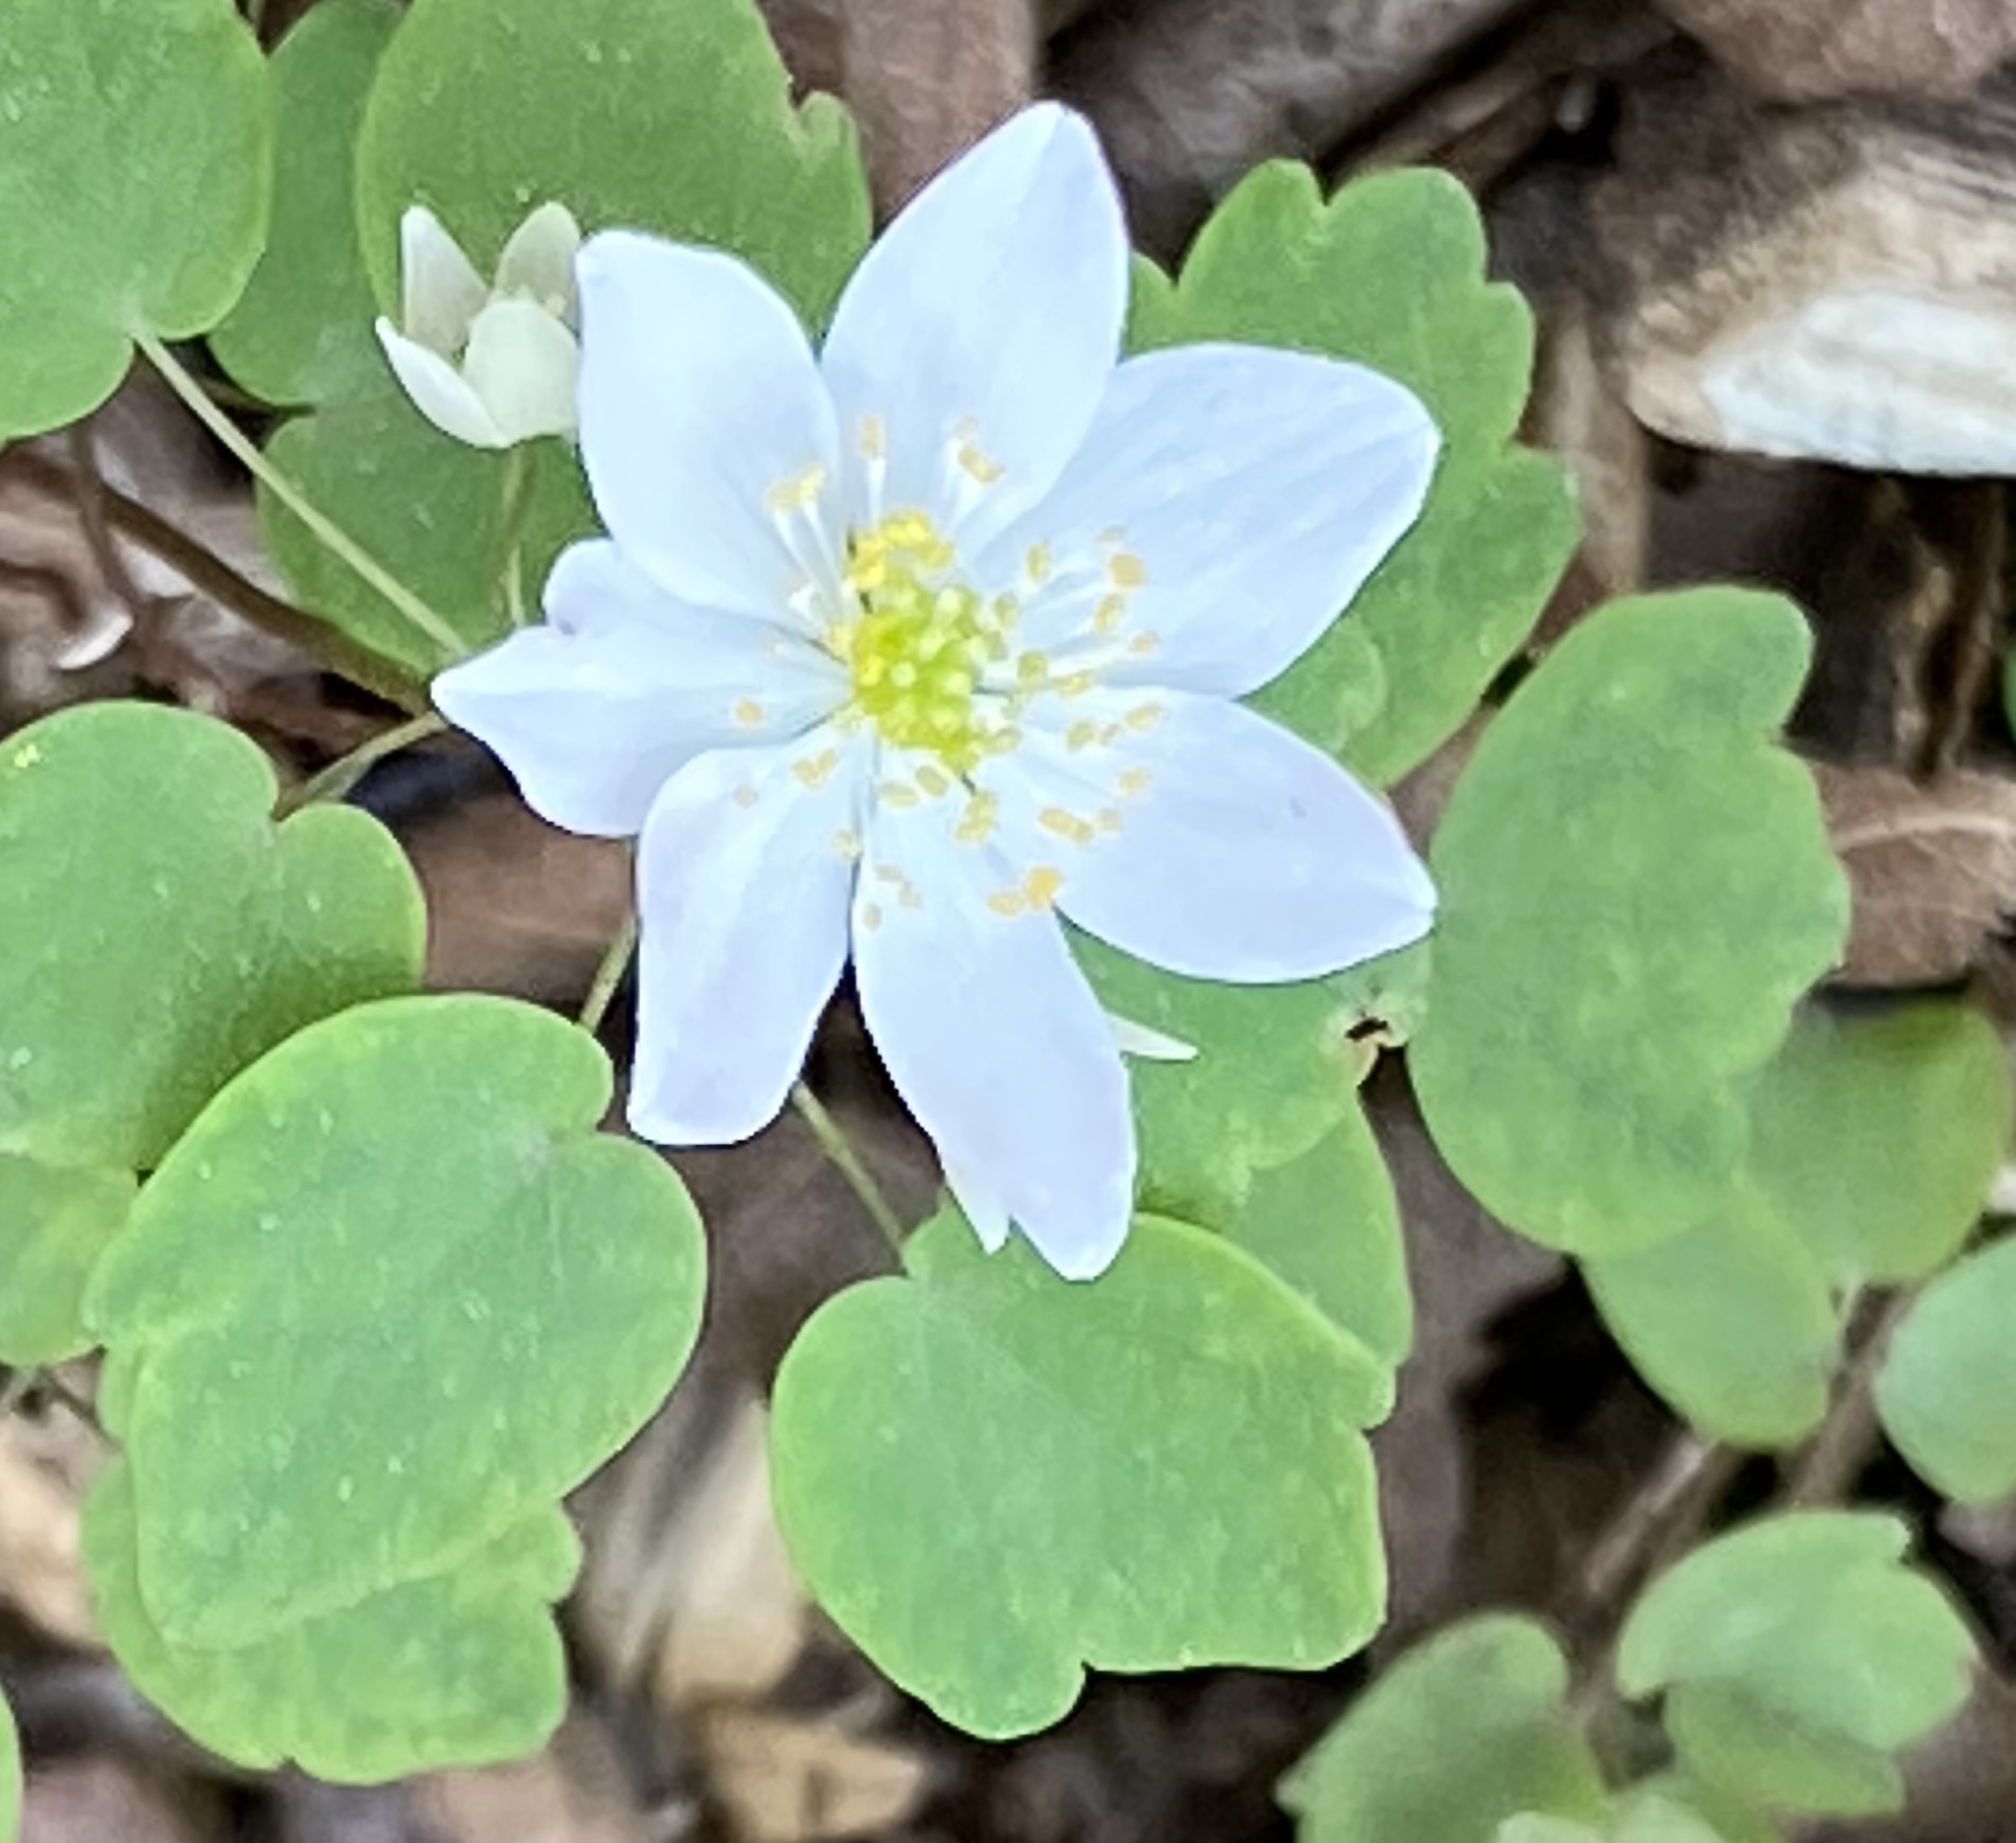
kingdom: Plantae
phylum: Tracheophyta
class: Magnoliopsida
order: Ranunculales
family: Ranunculaceae
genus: Thalictrum
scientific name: Thalictrum thalictroides
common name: Rue-anemone
